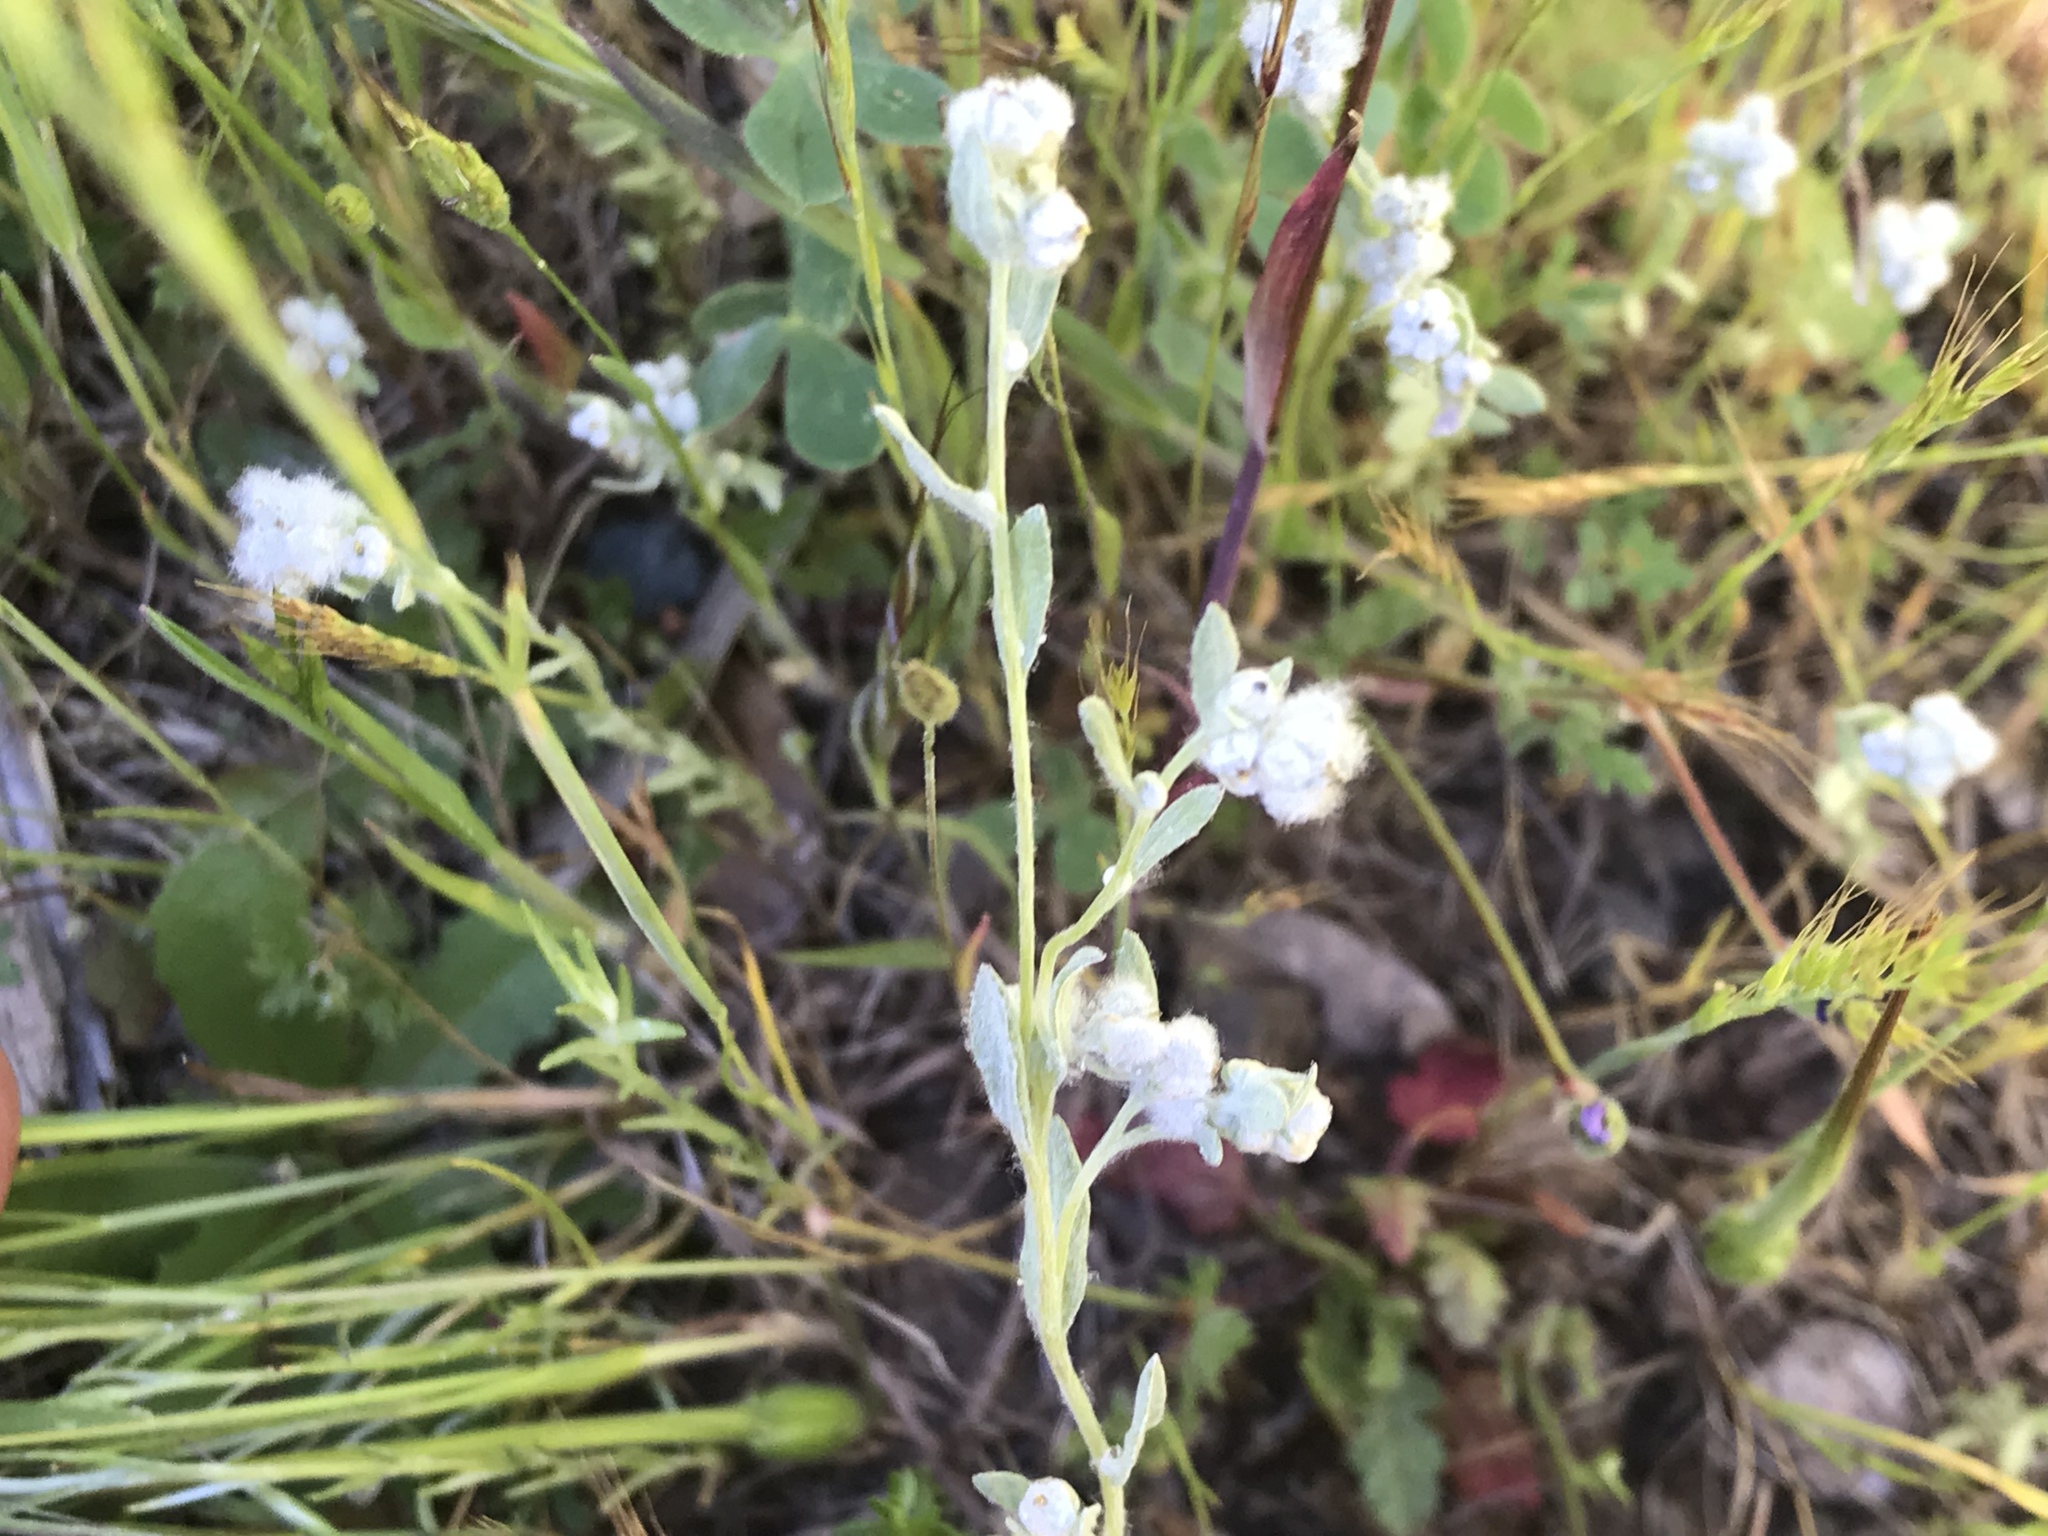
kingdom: Plantae
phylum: Tracheophyta
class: Magnoliopsida
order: Asterales
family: Asteraceae
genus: Bombycilaena
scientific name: Bombycilaena californica
